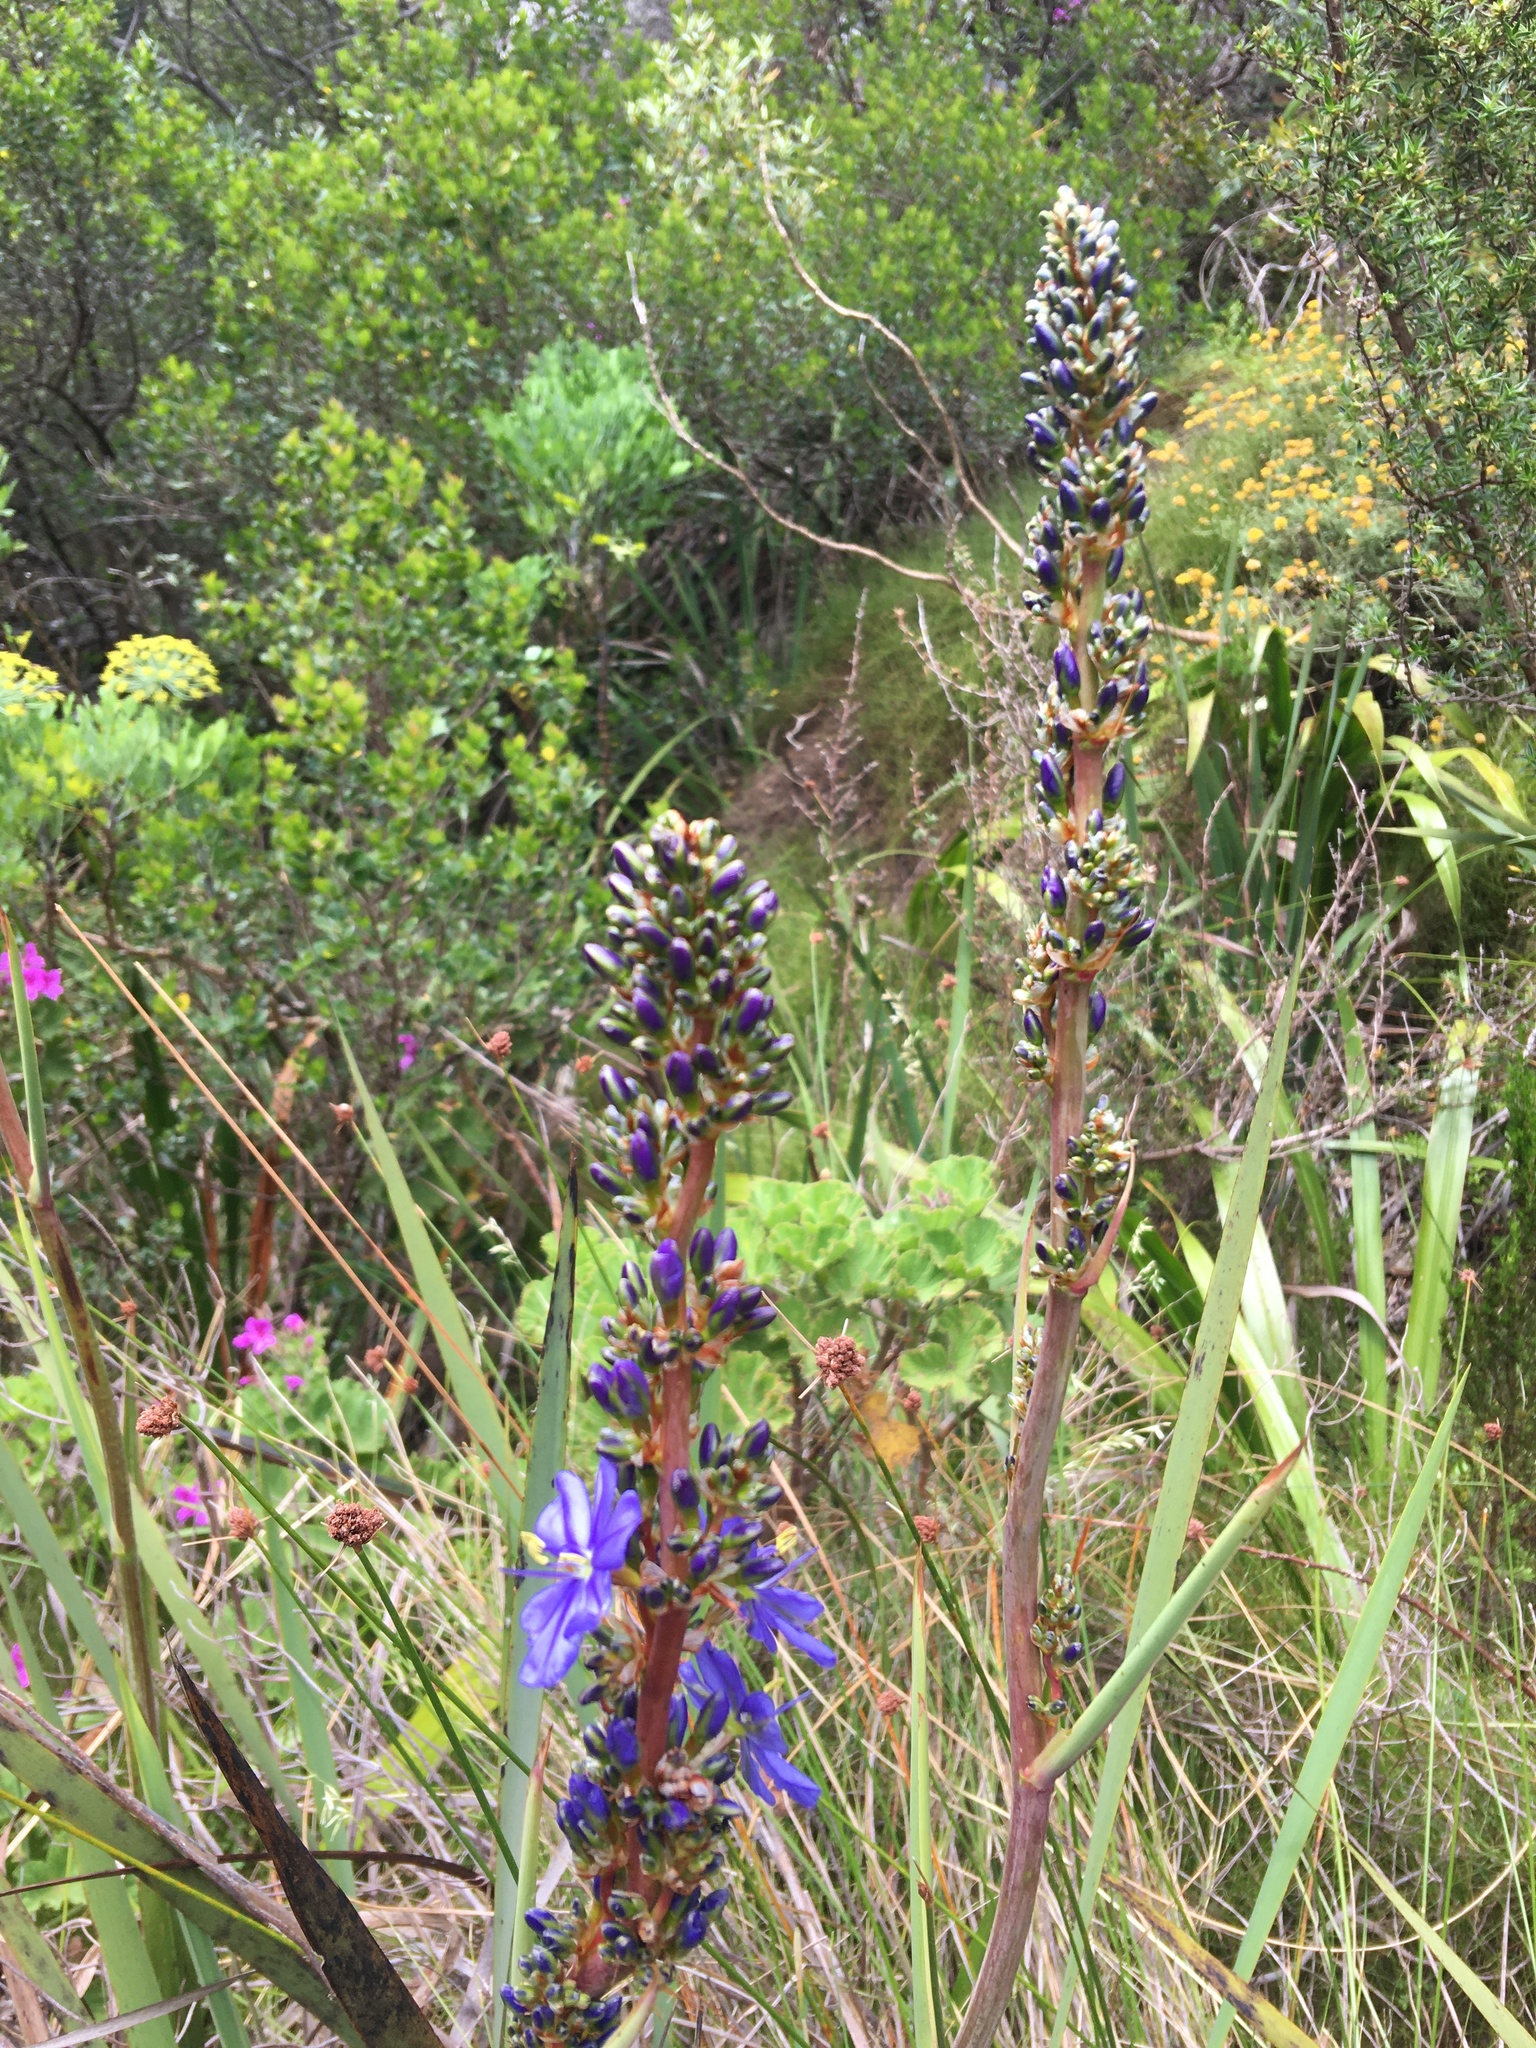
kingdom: Plantae
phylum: Tracheophyta
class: Liliopsida
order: Asparagales
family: Iridaceae
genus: Aristea
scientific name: Aristea capitata
